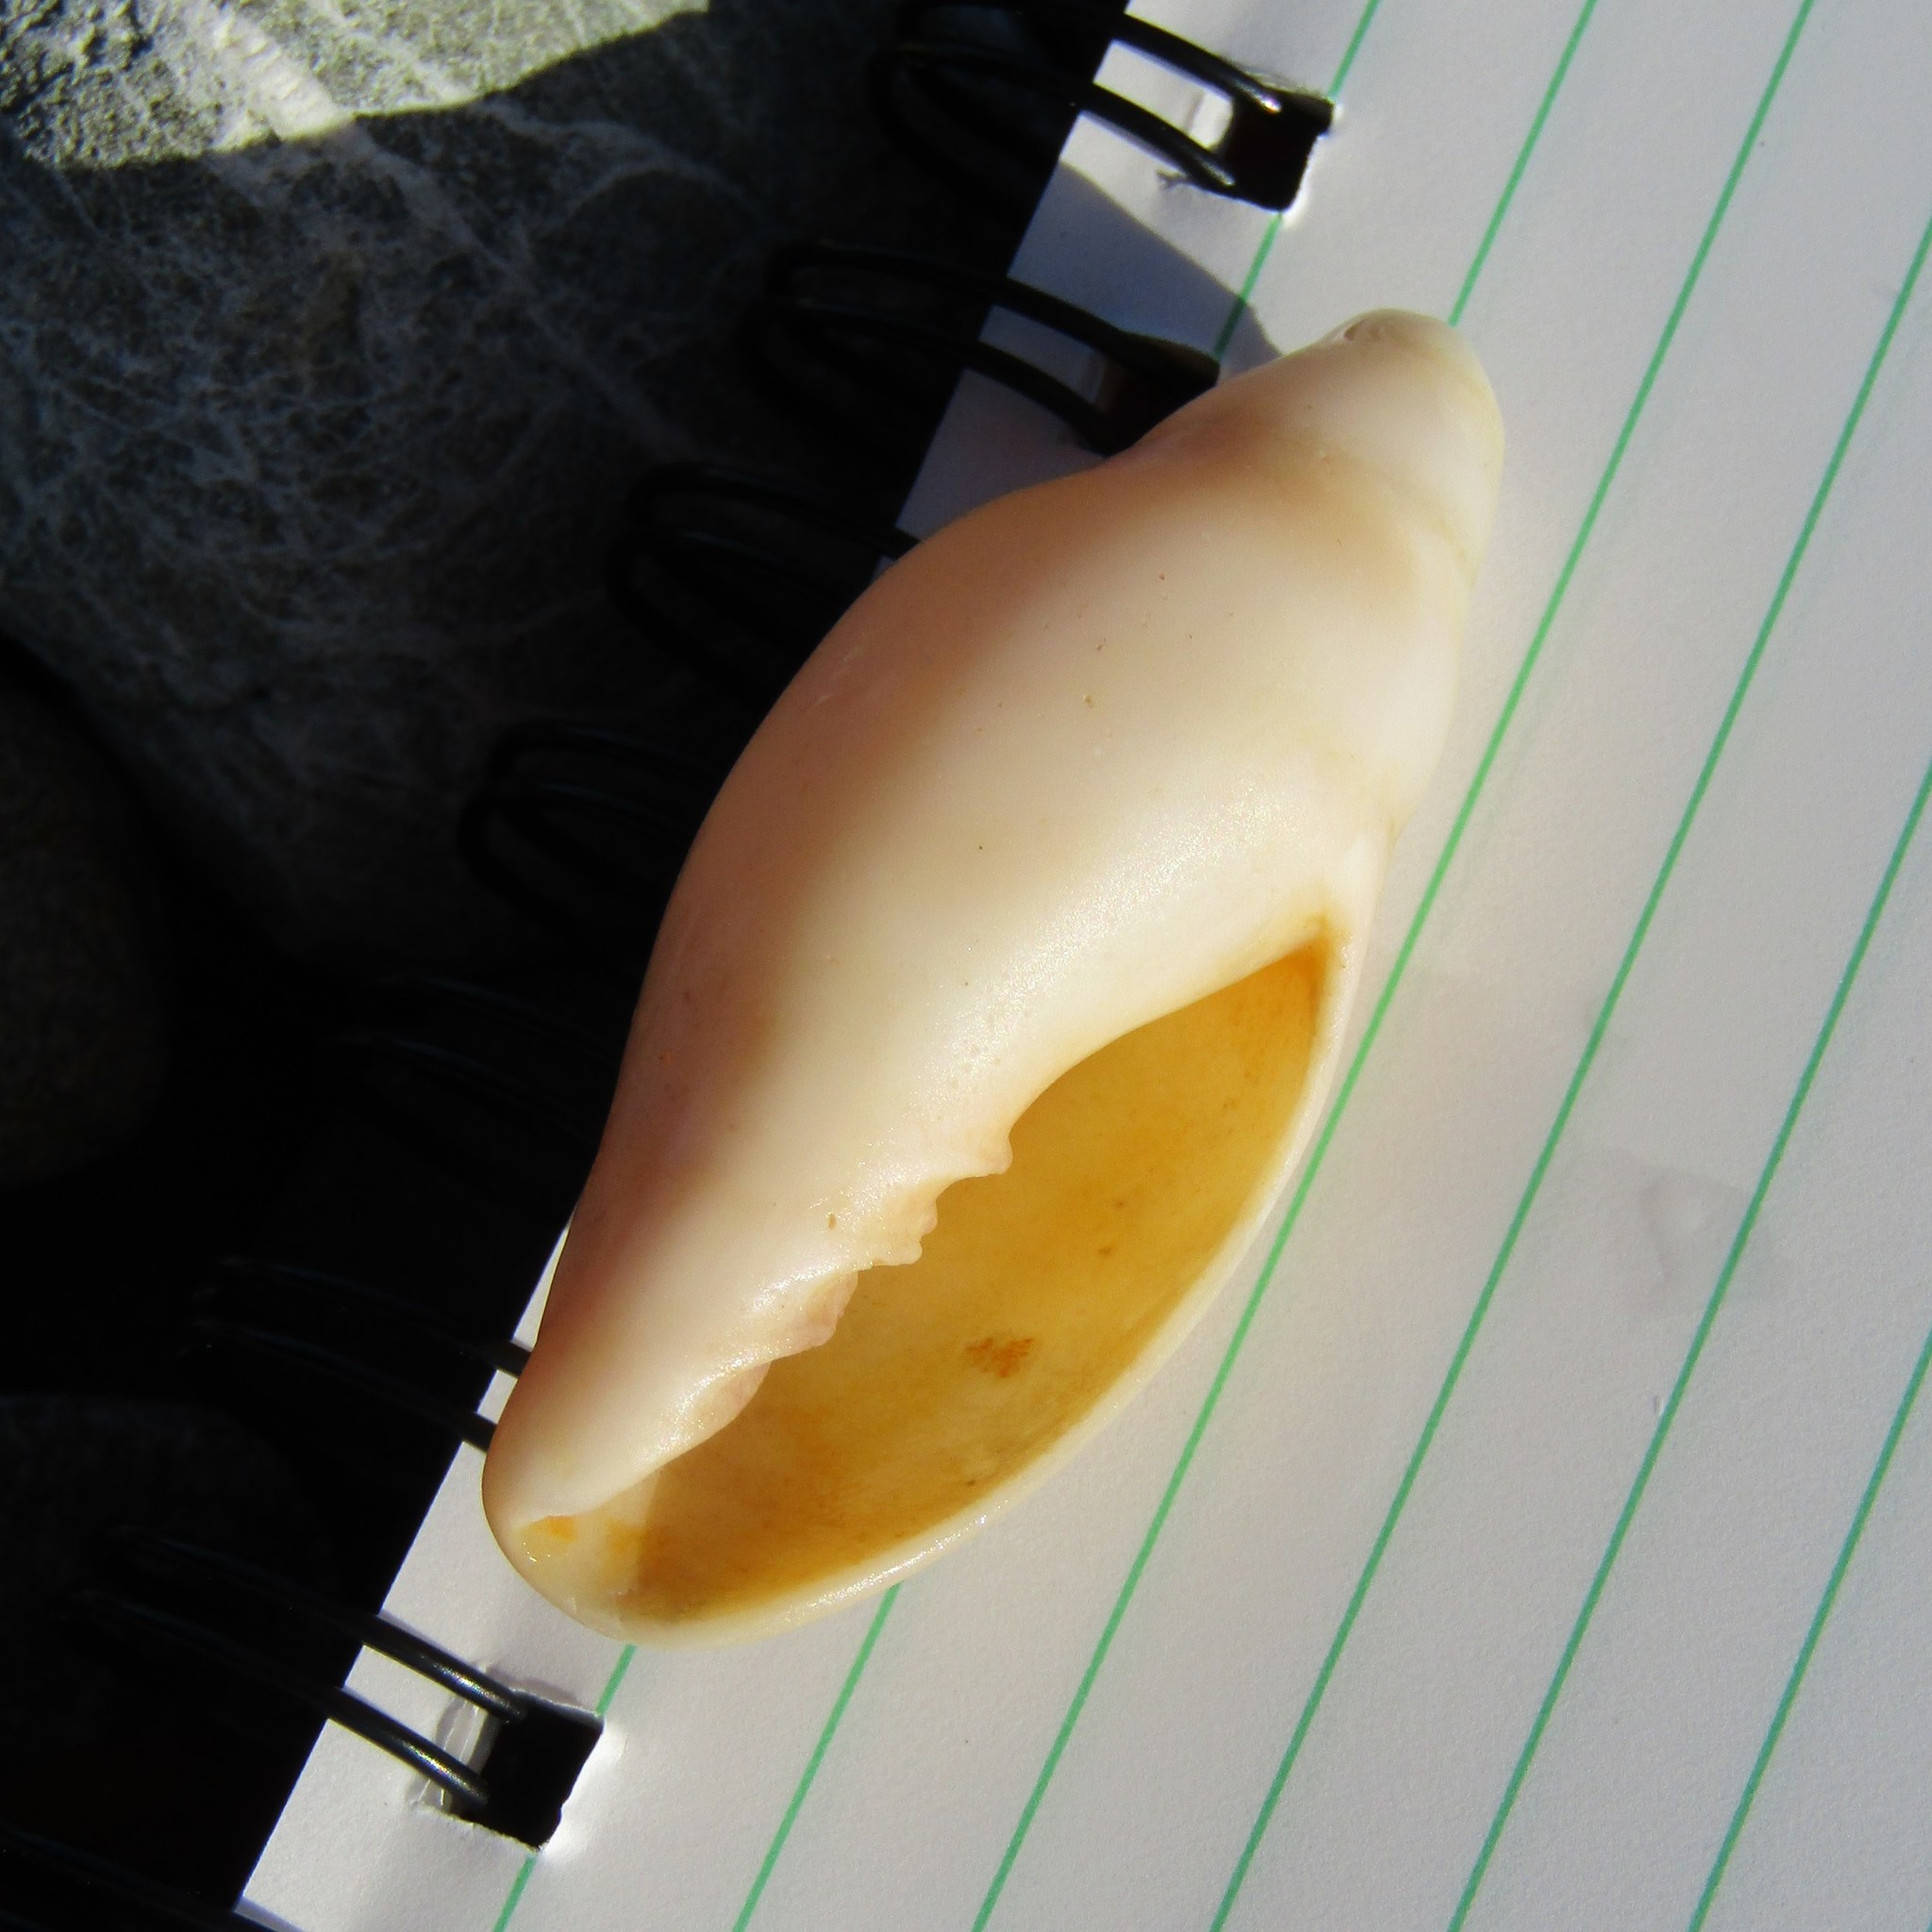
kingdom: Animalia
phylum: Mollusca
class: Gastropoda
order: Neogastropoda
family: Volutidae
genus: Alcithoe
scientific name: Alcithoe fusus
